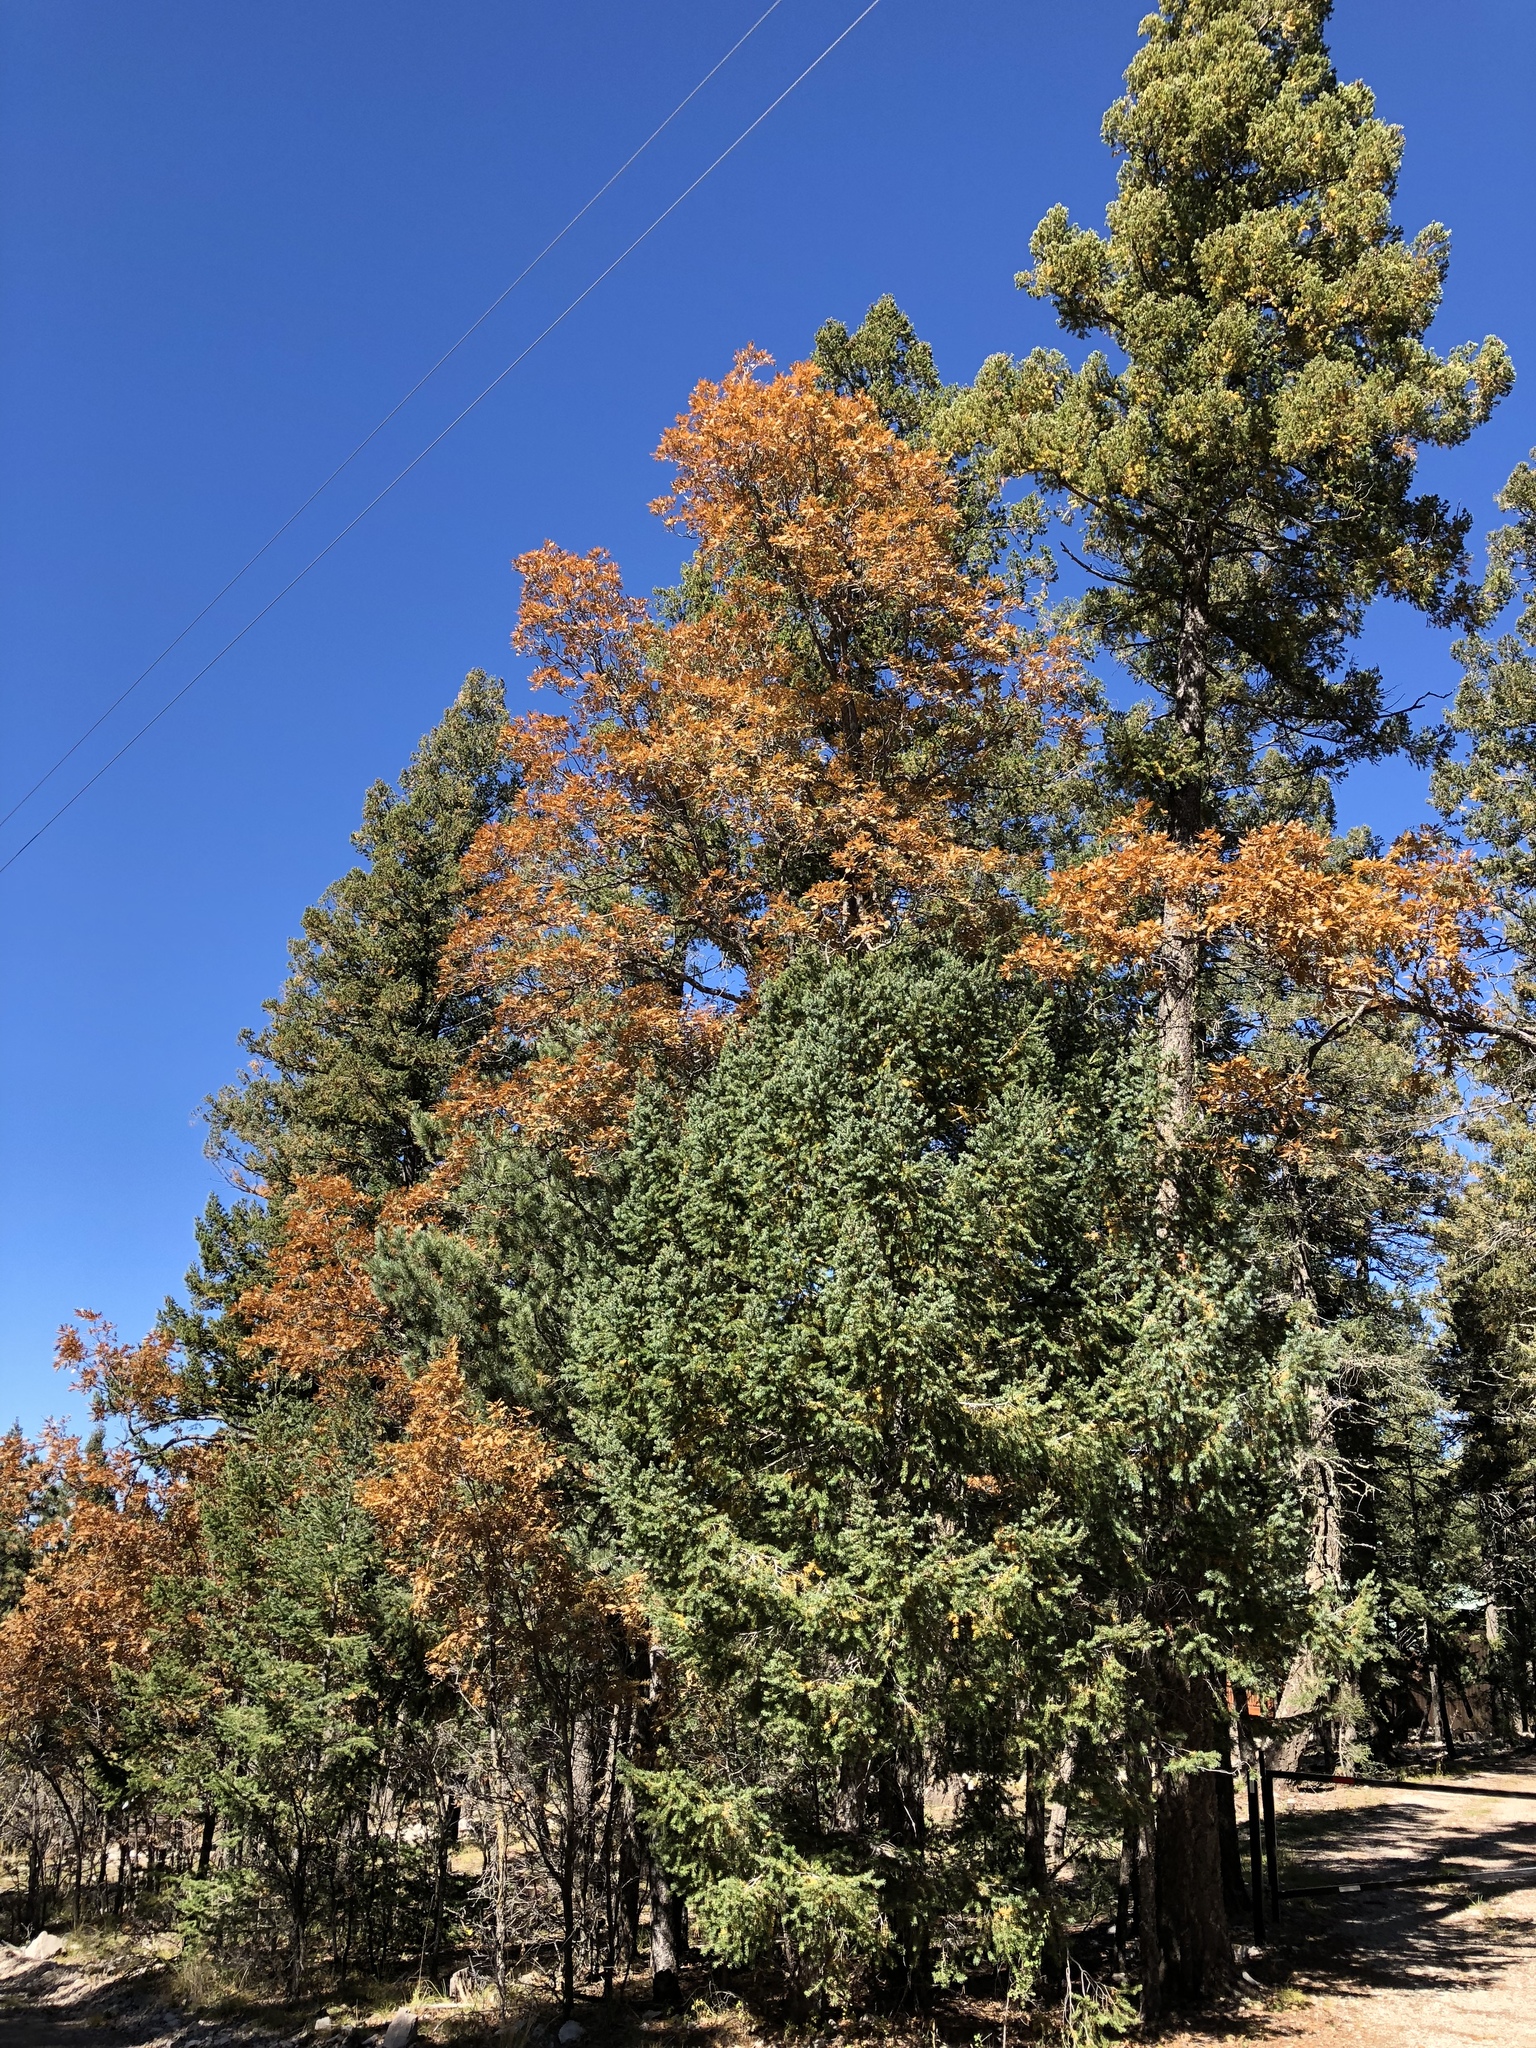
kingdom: Plantae
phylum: Tracheophyta
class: Magnoliopsida
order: Fagales
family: Fagaceae
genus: Quercus
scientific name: Quercus gambelii
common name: Gambel oak
